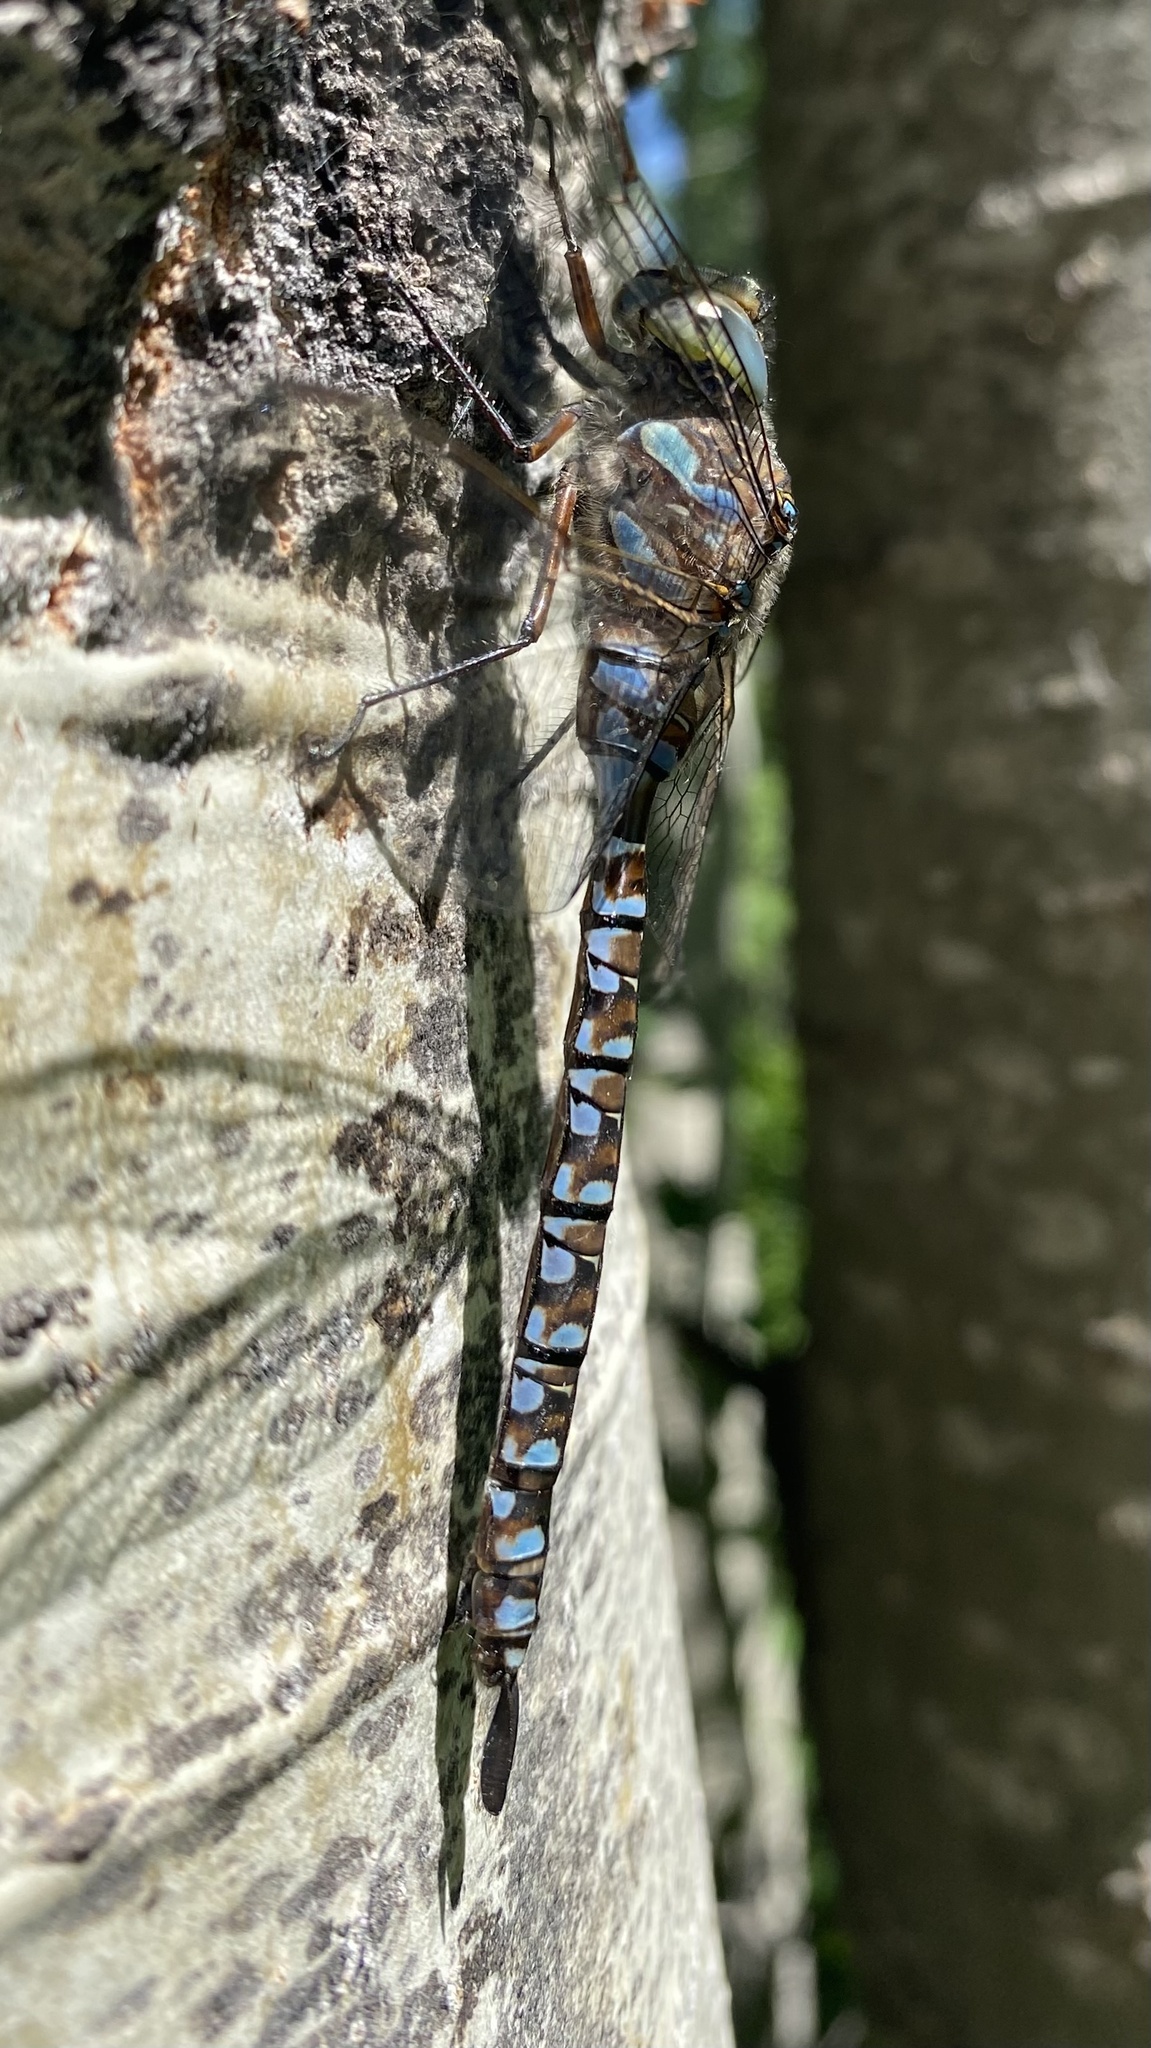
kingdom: Animalia
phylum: Arthropoda
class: Insecta
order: Odonata
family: Aeshnidae
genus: Aeshna
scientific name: Aeshna eremita
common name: Lake darner
